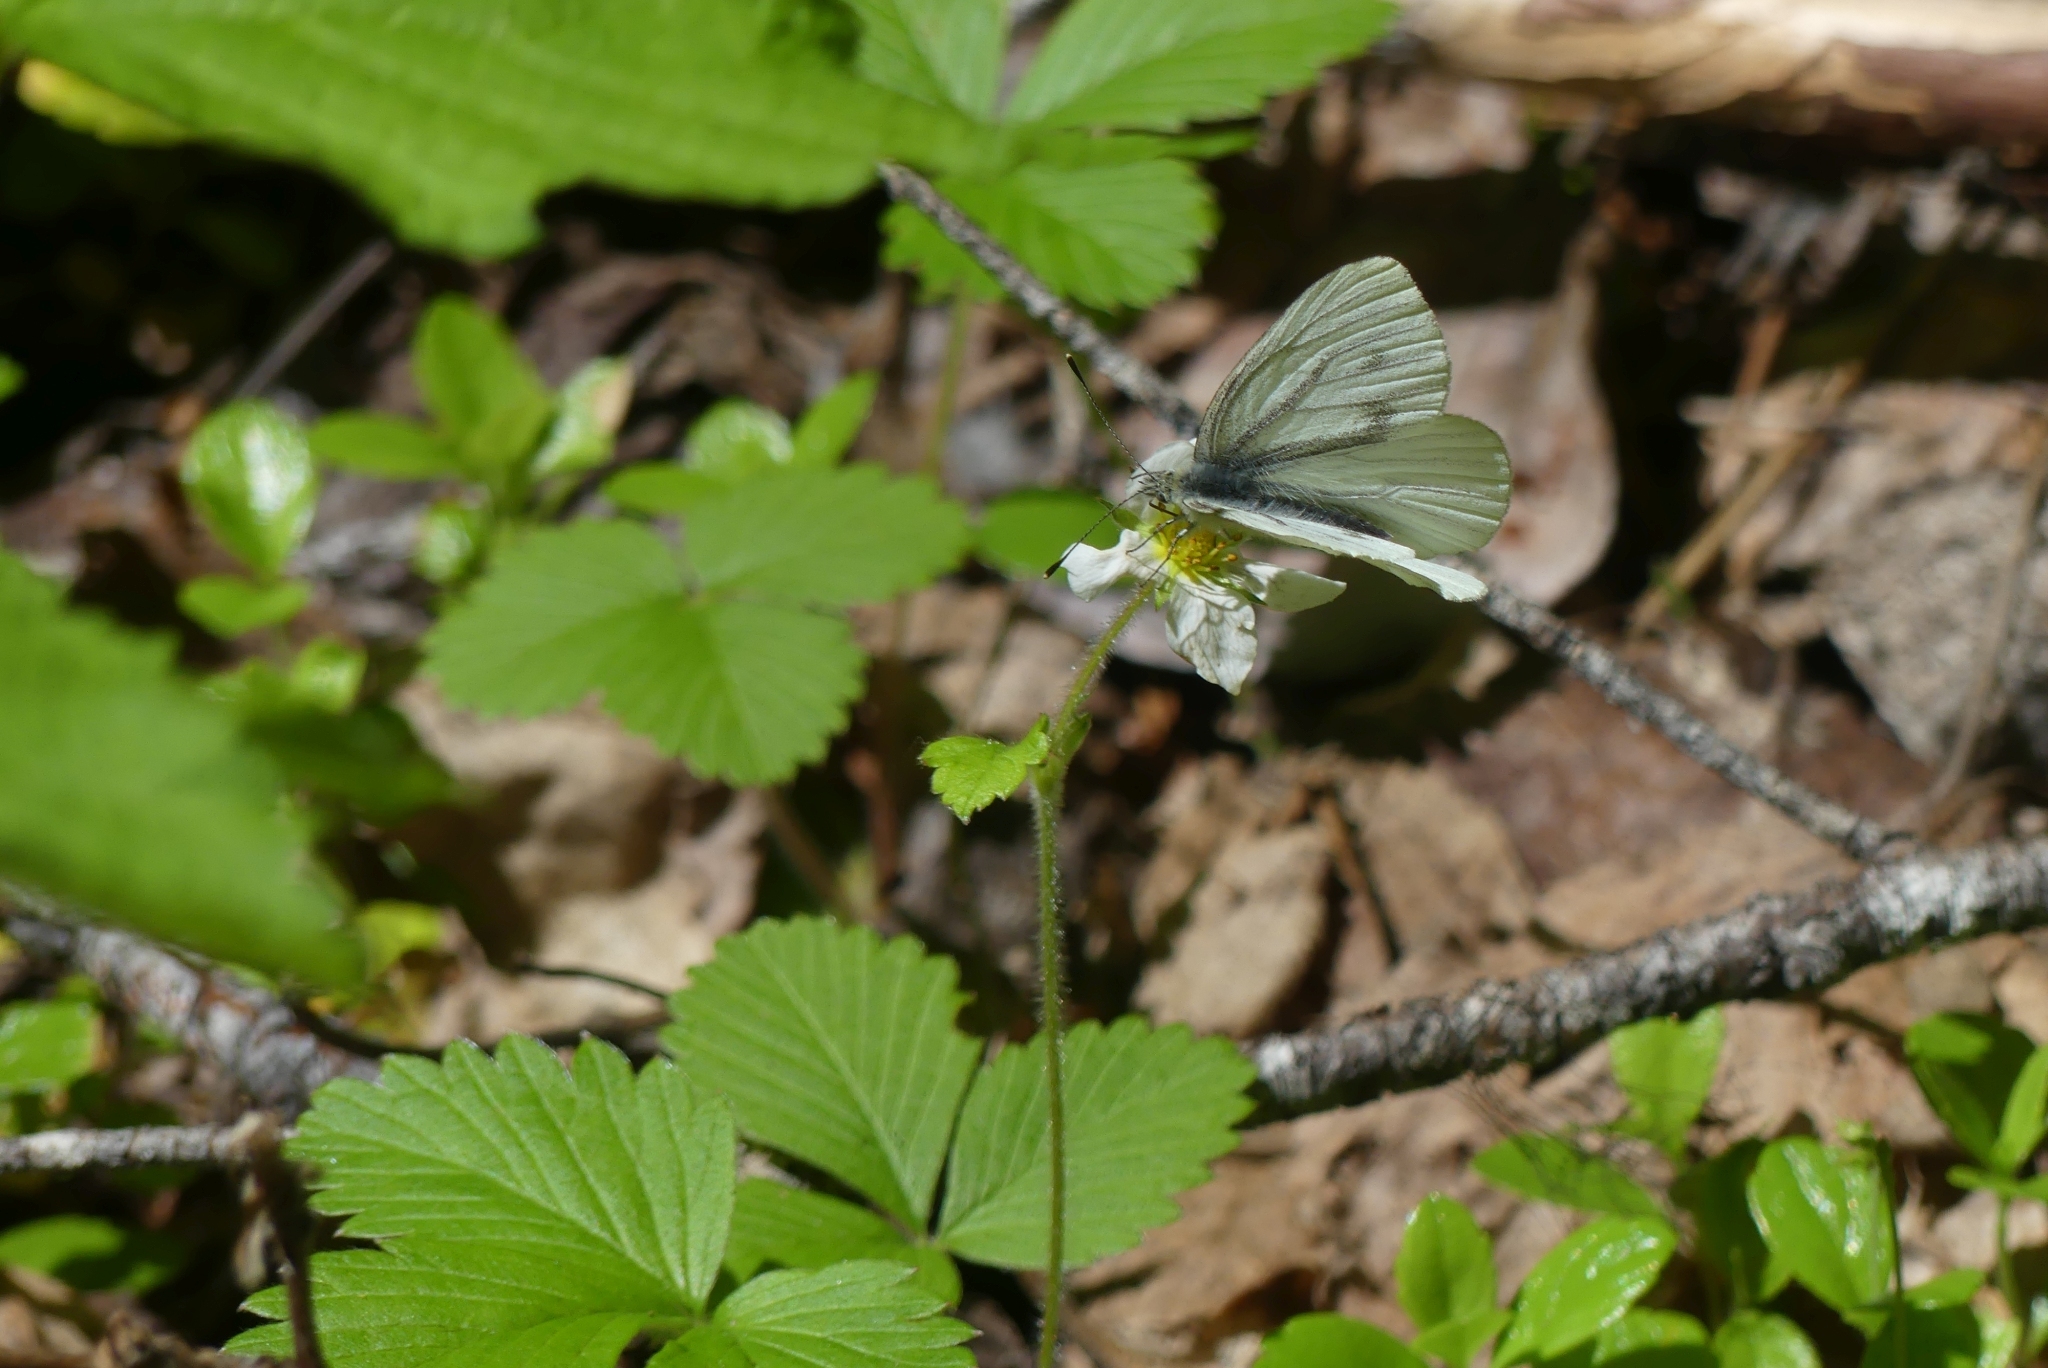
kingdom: Animalia
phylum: Arthropoda
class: Insecta
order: Lepidoptera
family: Pieridae
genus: Pieris
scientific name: Pieris marginalis
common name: Margined white
